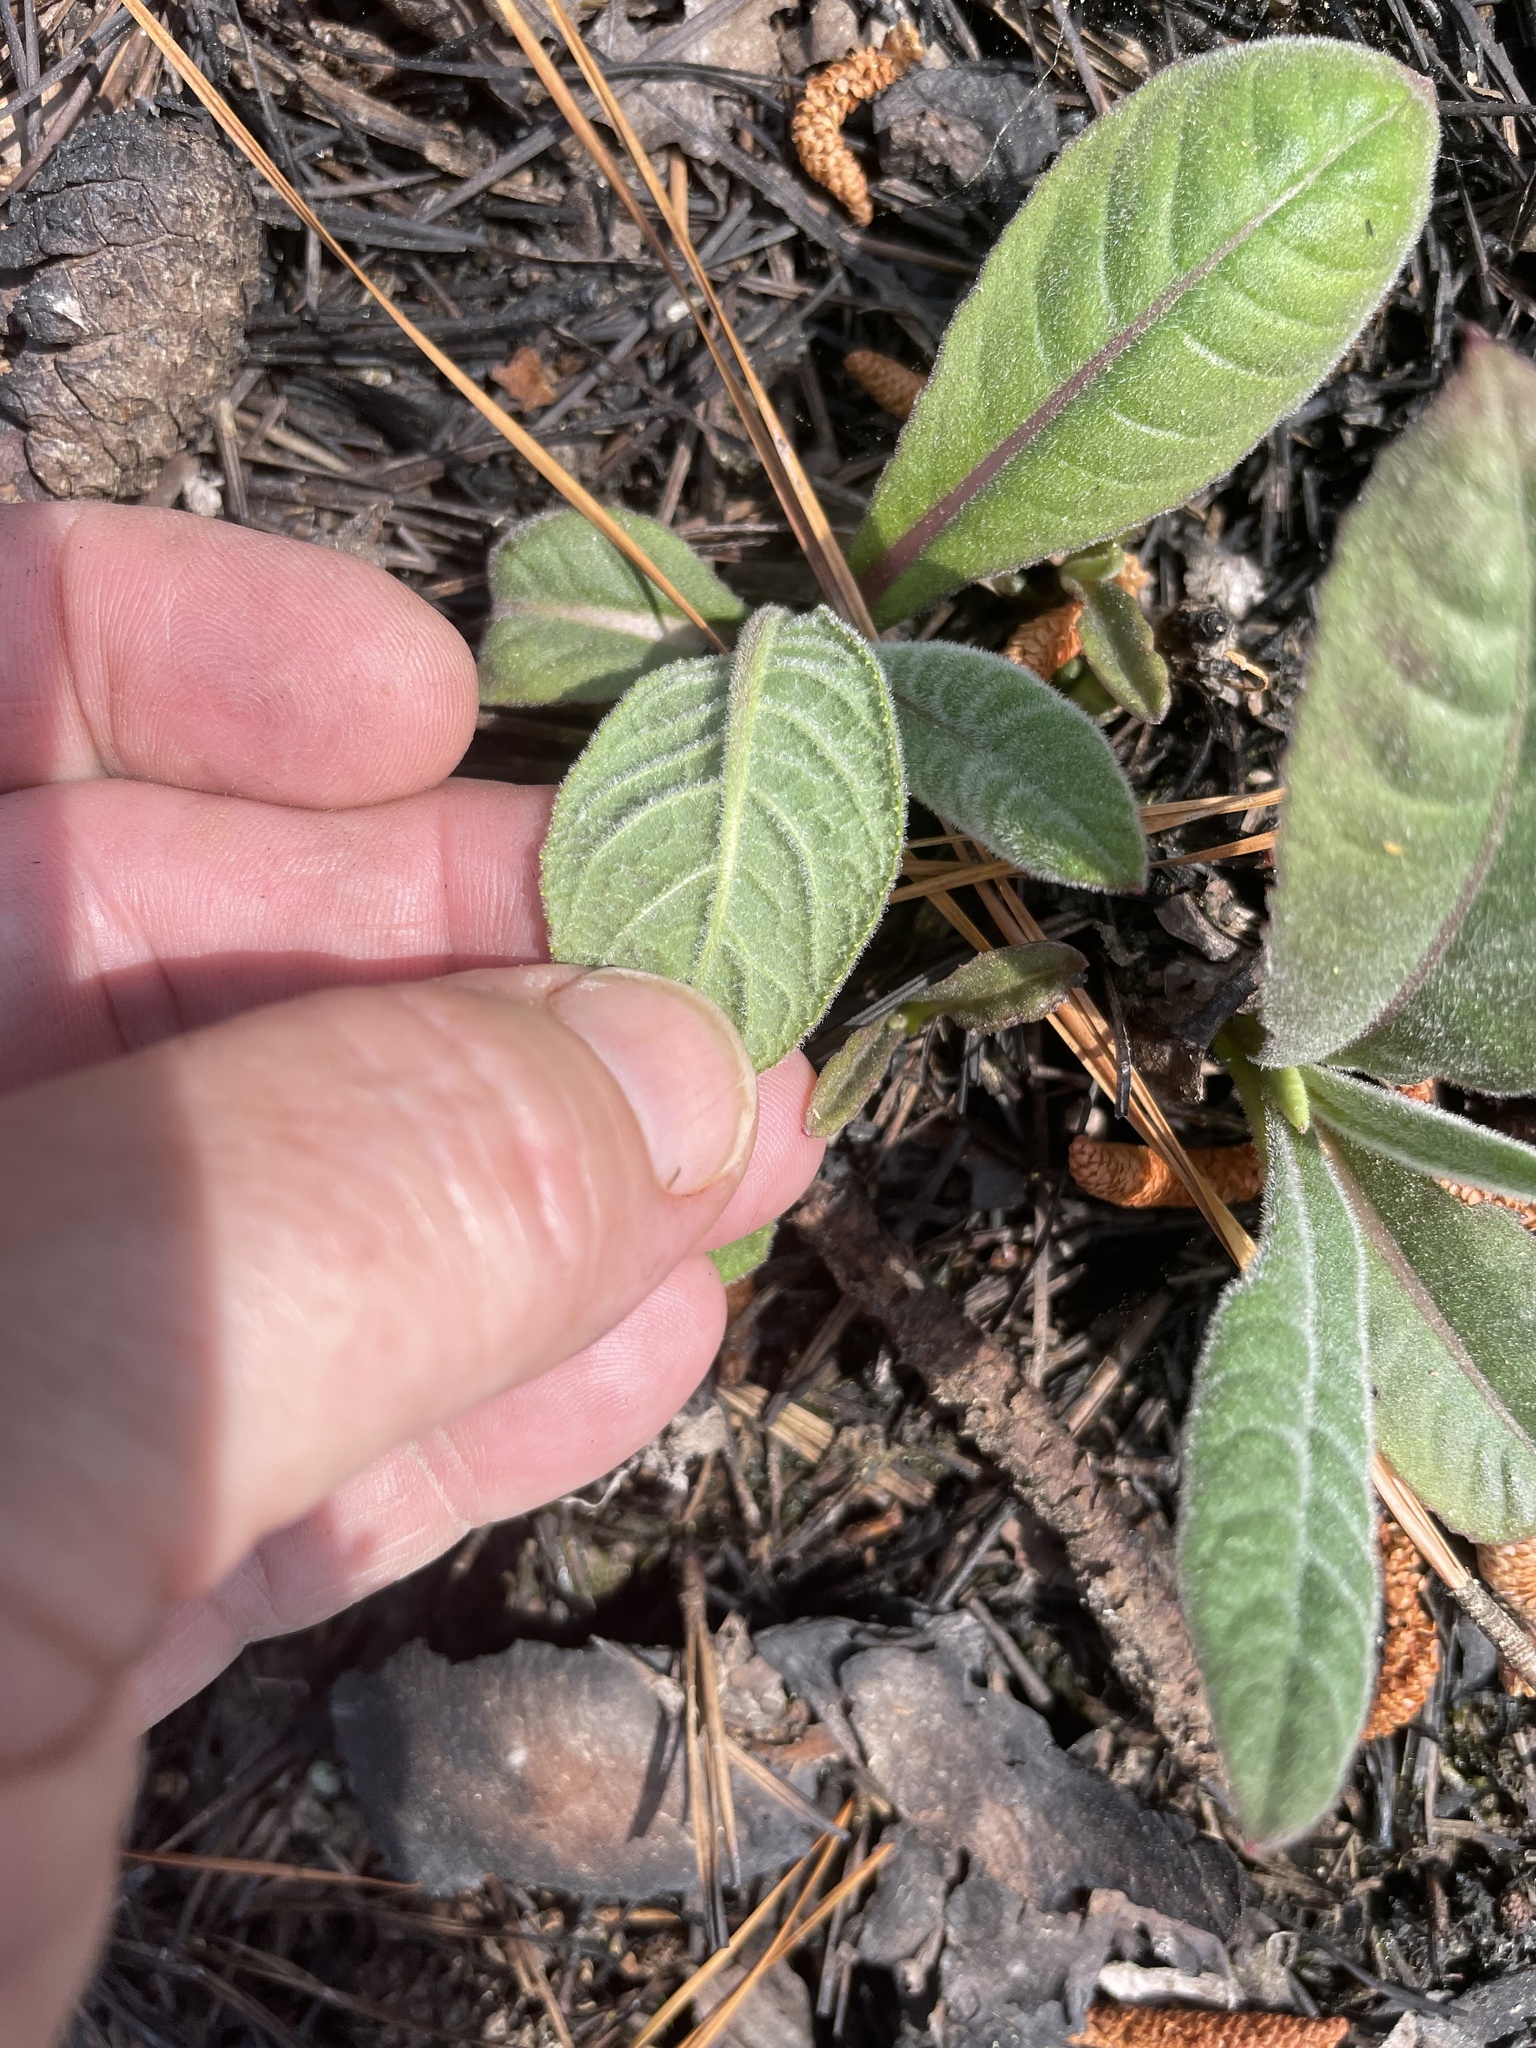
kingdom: Plantae
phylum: Tracheophyta
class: Magnoliopsida
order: Asterales
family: Asteraceae
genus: Vernonia
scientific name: Vernonia acaulis
